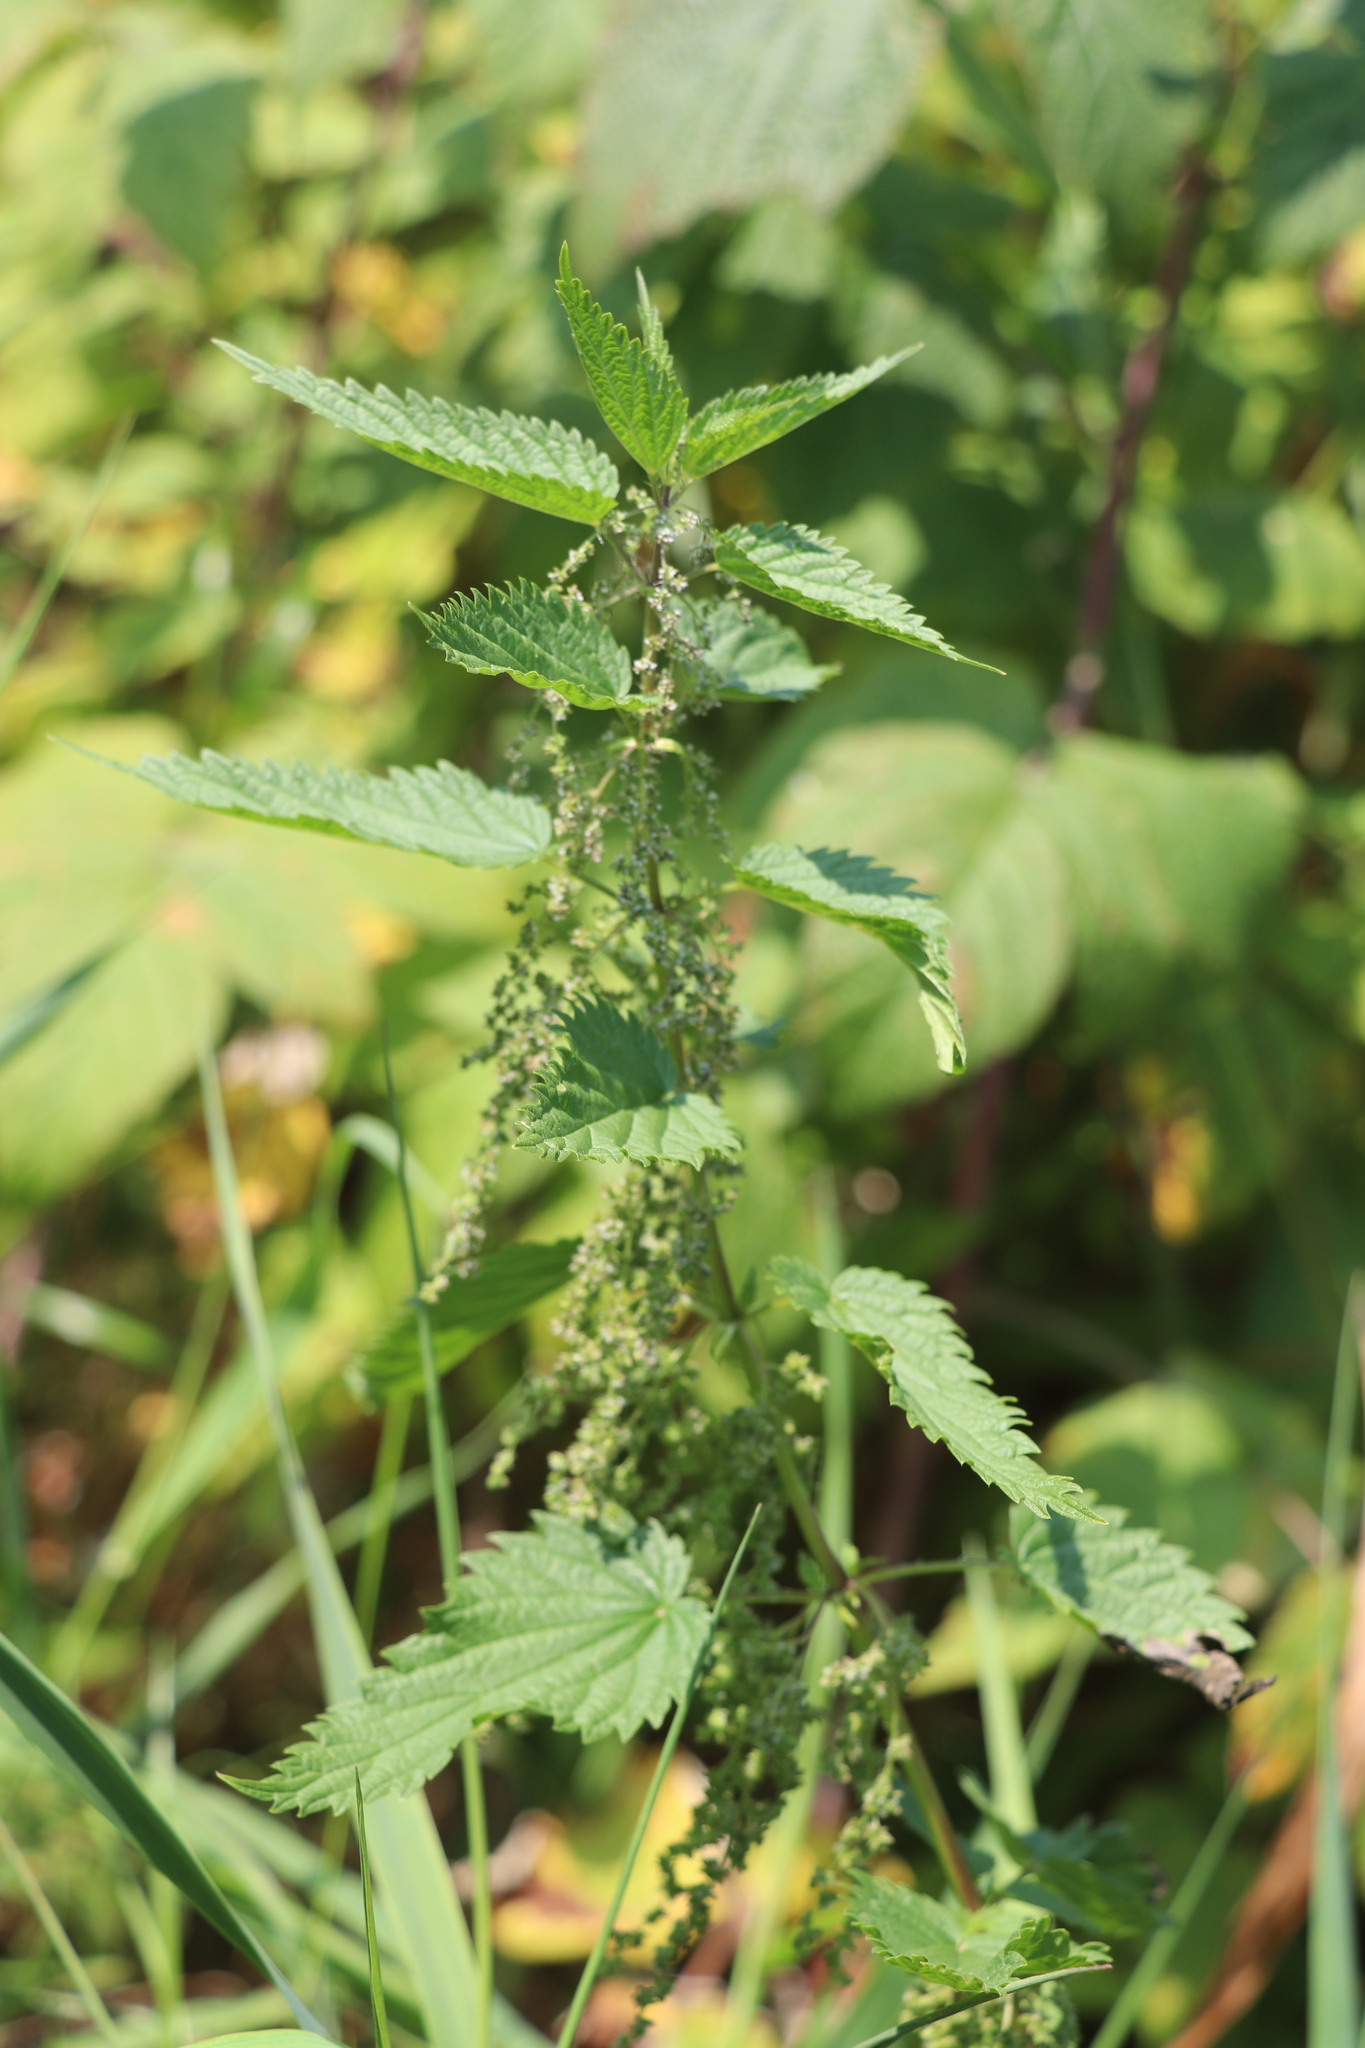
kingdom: Plantae
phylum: Tracheophyta
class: Magnoliopsida
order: Rosales
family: Urticaceae
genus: Urtica
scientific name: Urtica dioica
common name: Common nettle
